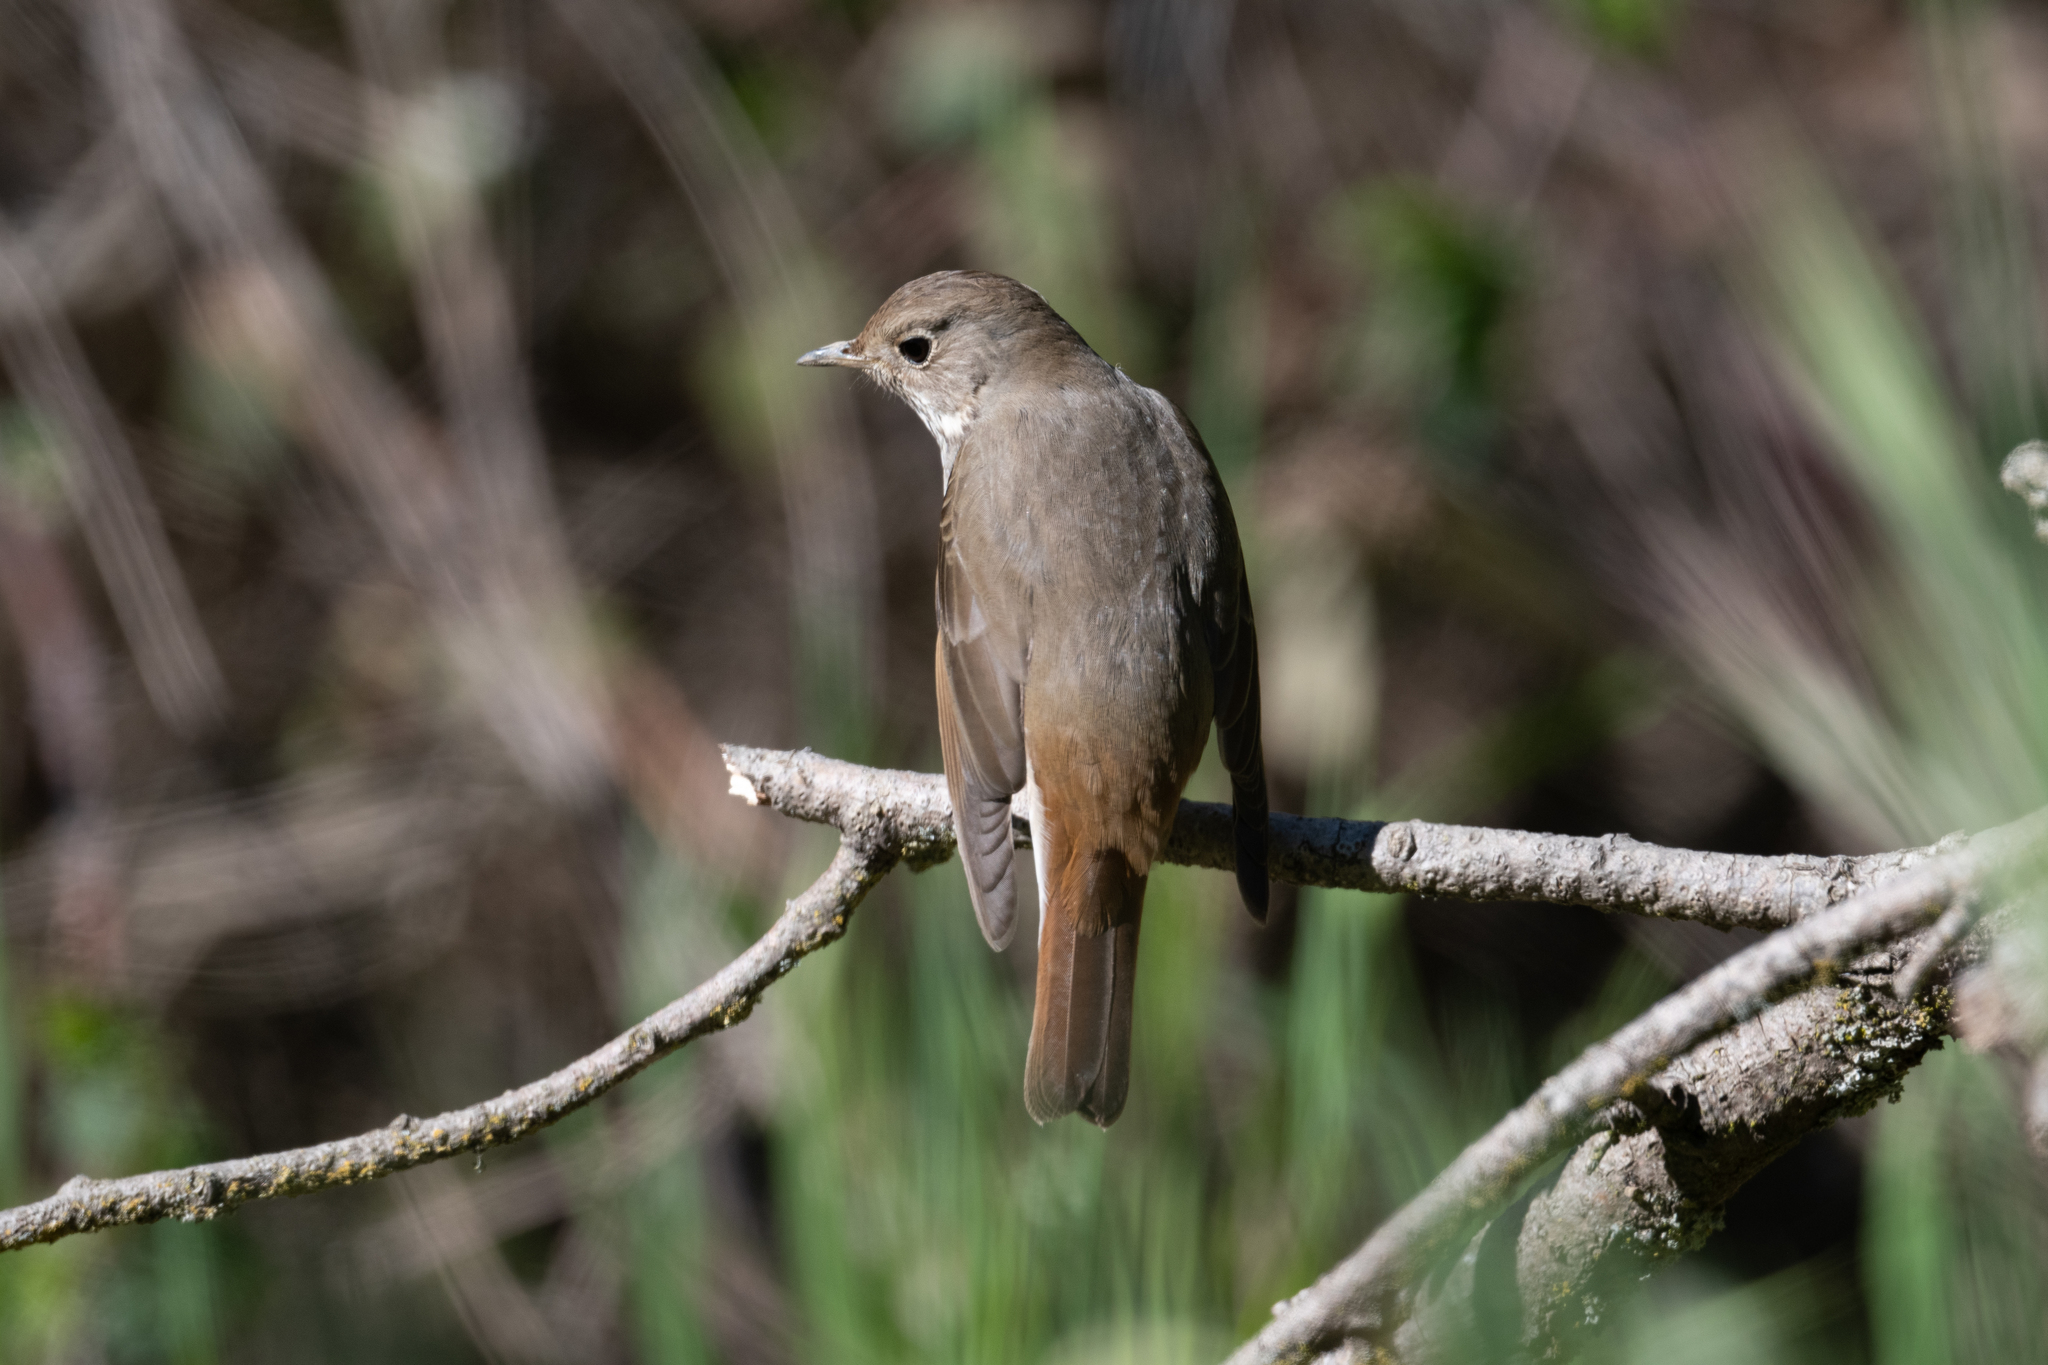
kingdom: Animalia
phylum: Chordata
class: Aves
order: Passeriformes
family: Turdidae
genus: Catharus
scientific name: Catharus guttatus
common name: Hermit thrush
